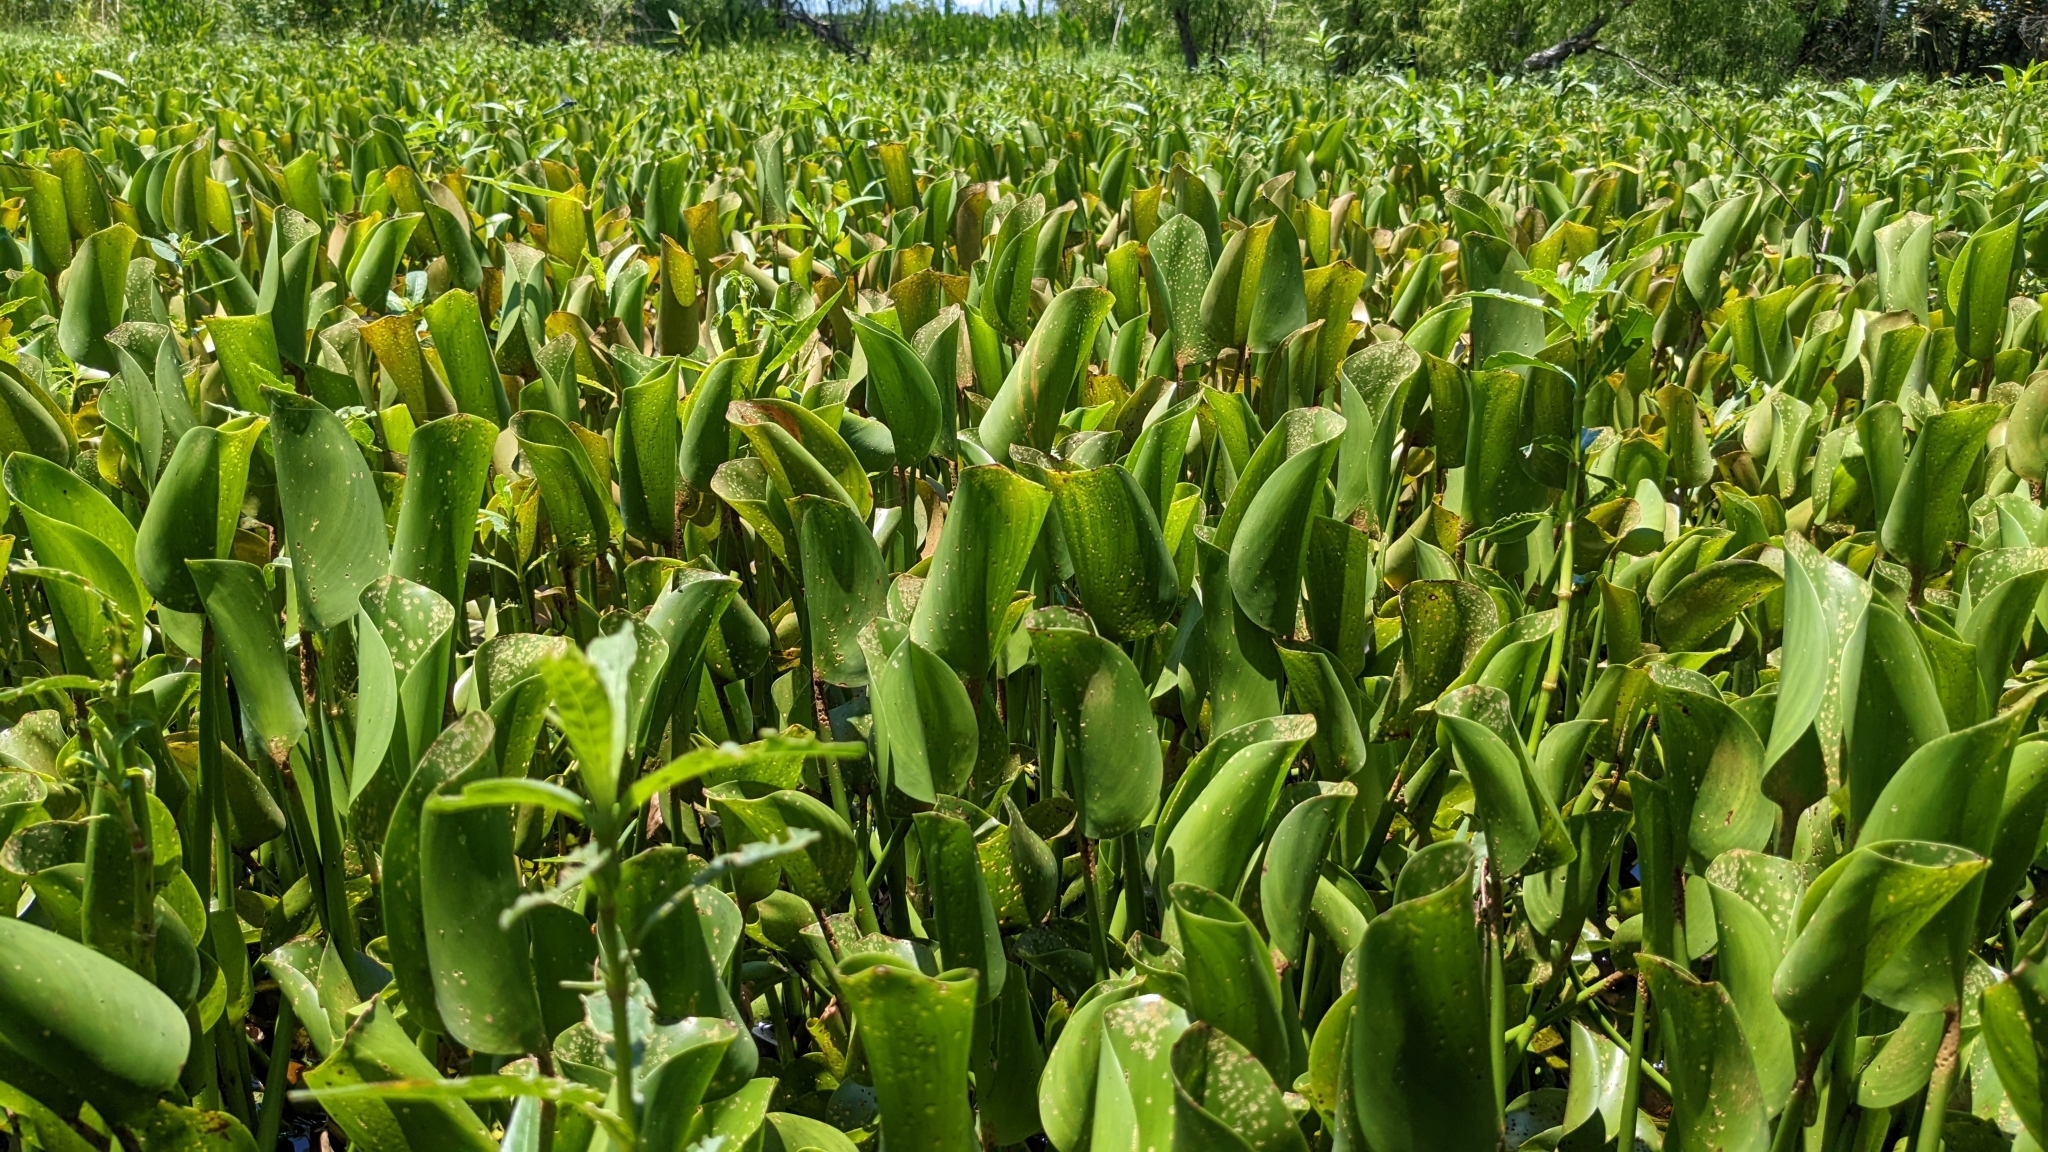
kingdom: Plantae
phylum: Tracheophyta
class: Liliopsida
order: Commelinales
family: Pontederiaceae
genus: Pontederia
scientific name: Pontederia crassipes
